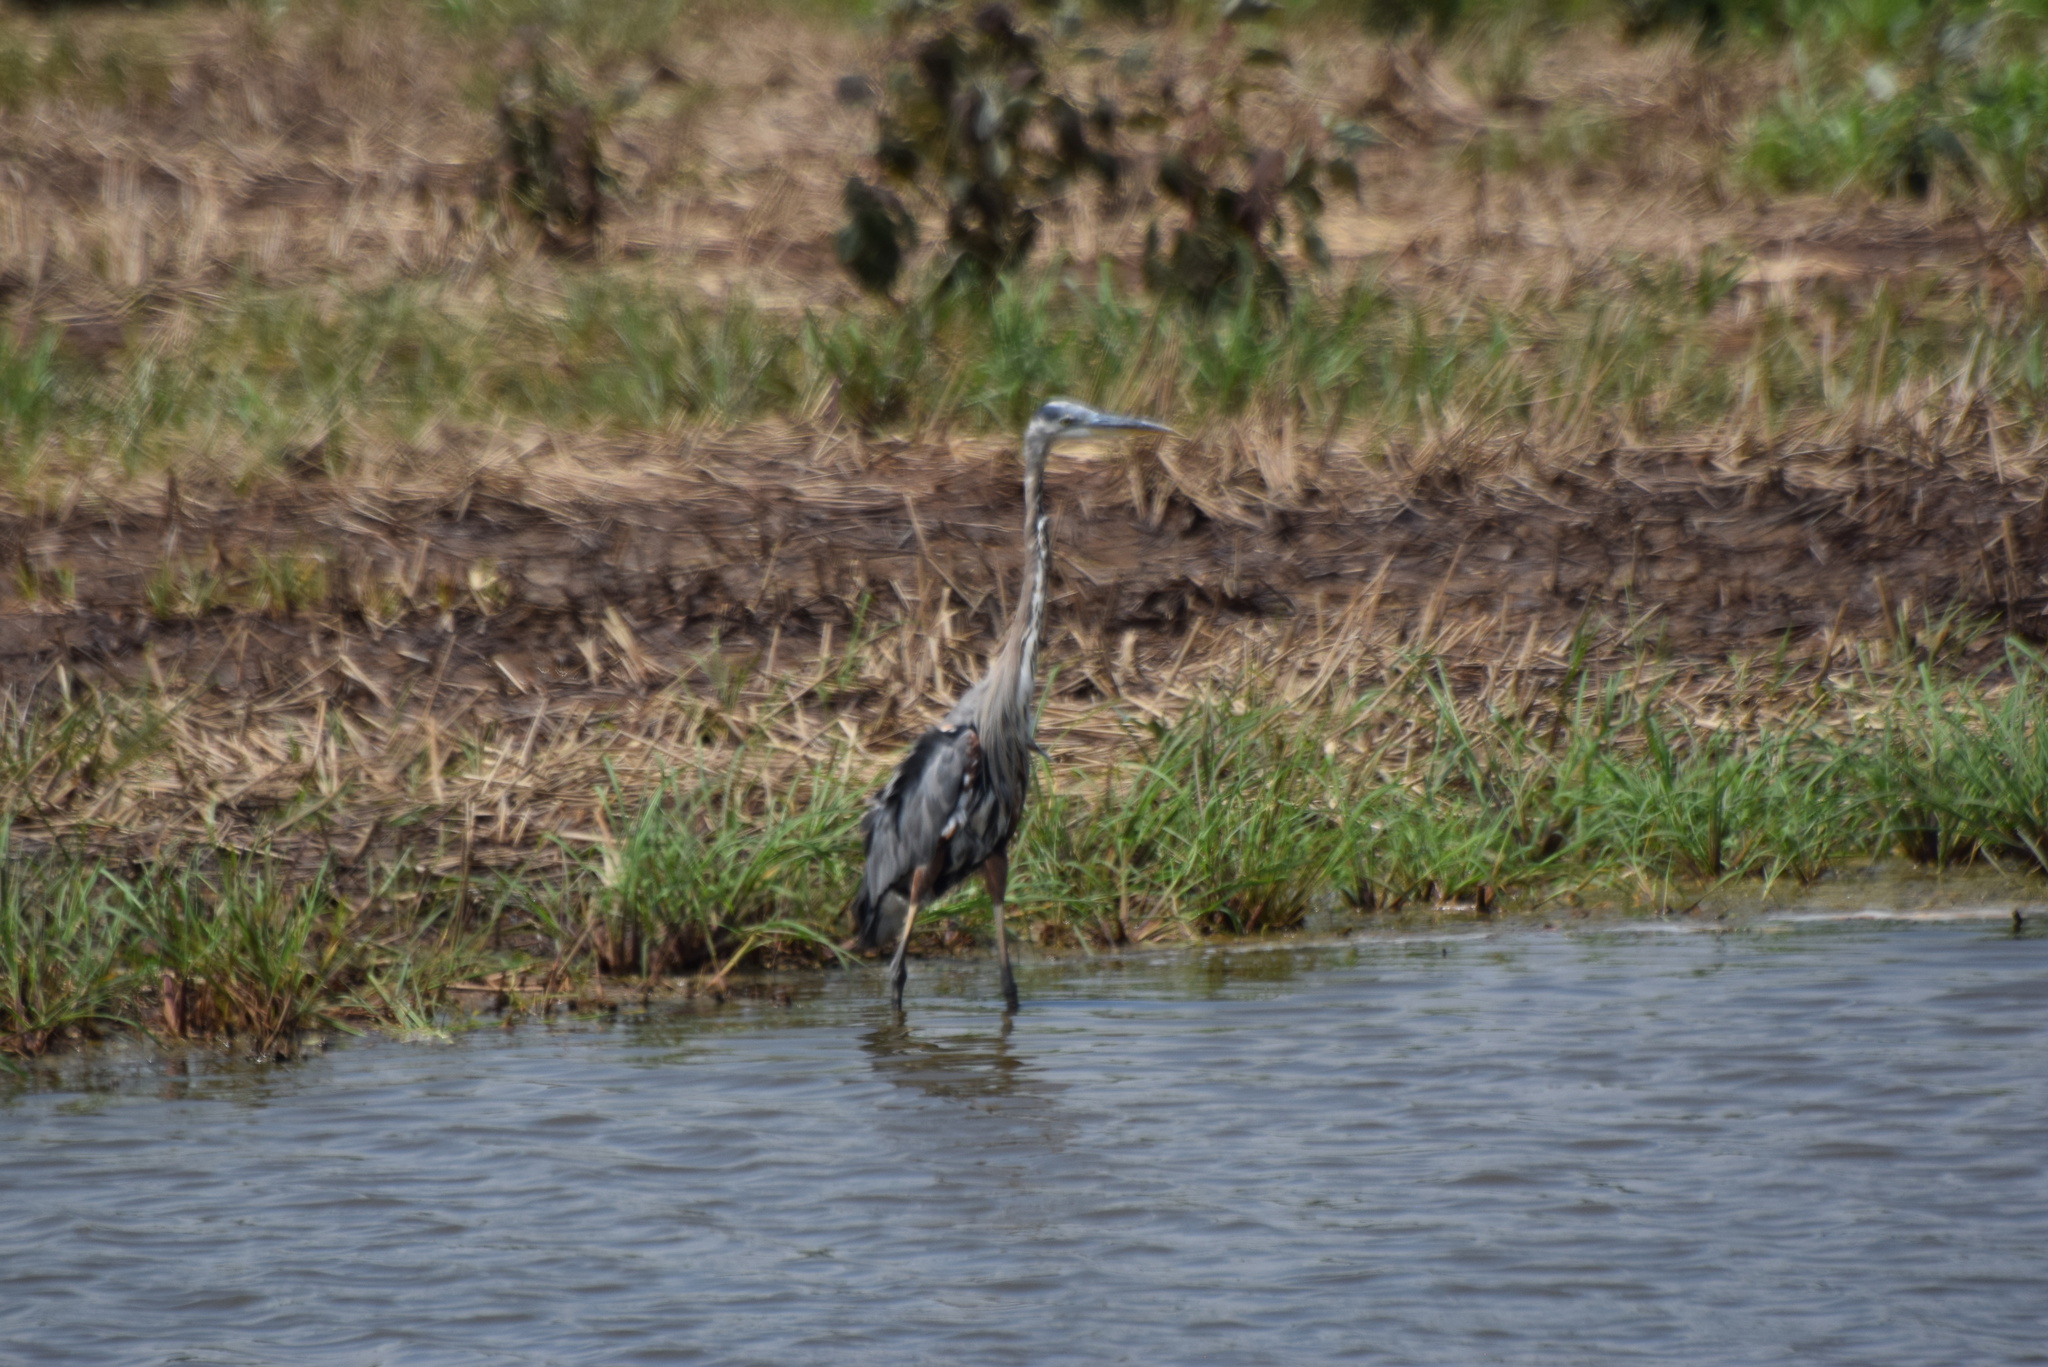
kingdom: Animalia
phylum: Chordata
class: Aves
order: Pelecaniformes
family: Ardeidae
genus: Ardea
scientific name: Ardea herodias
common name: Great blue heron
